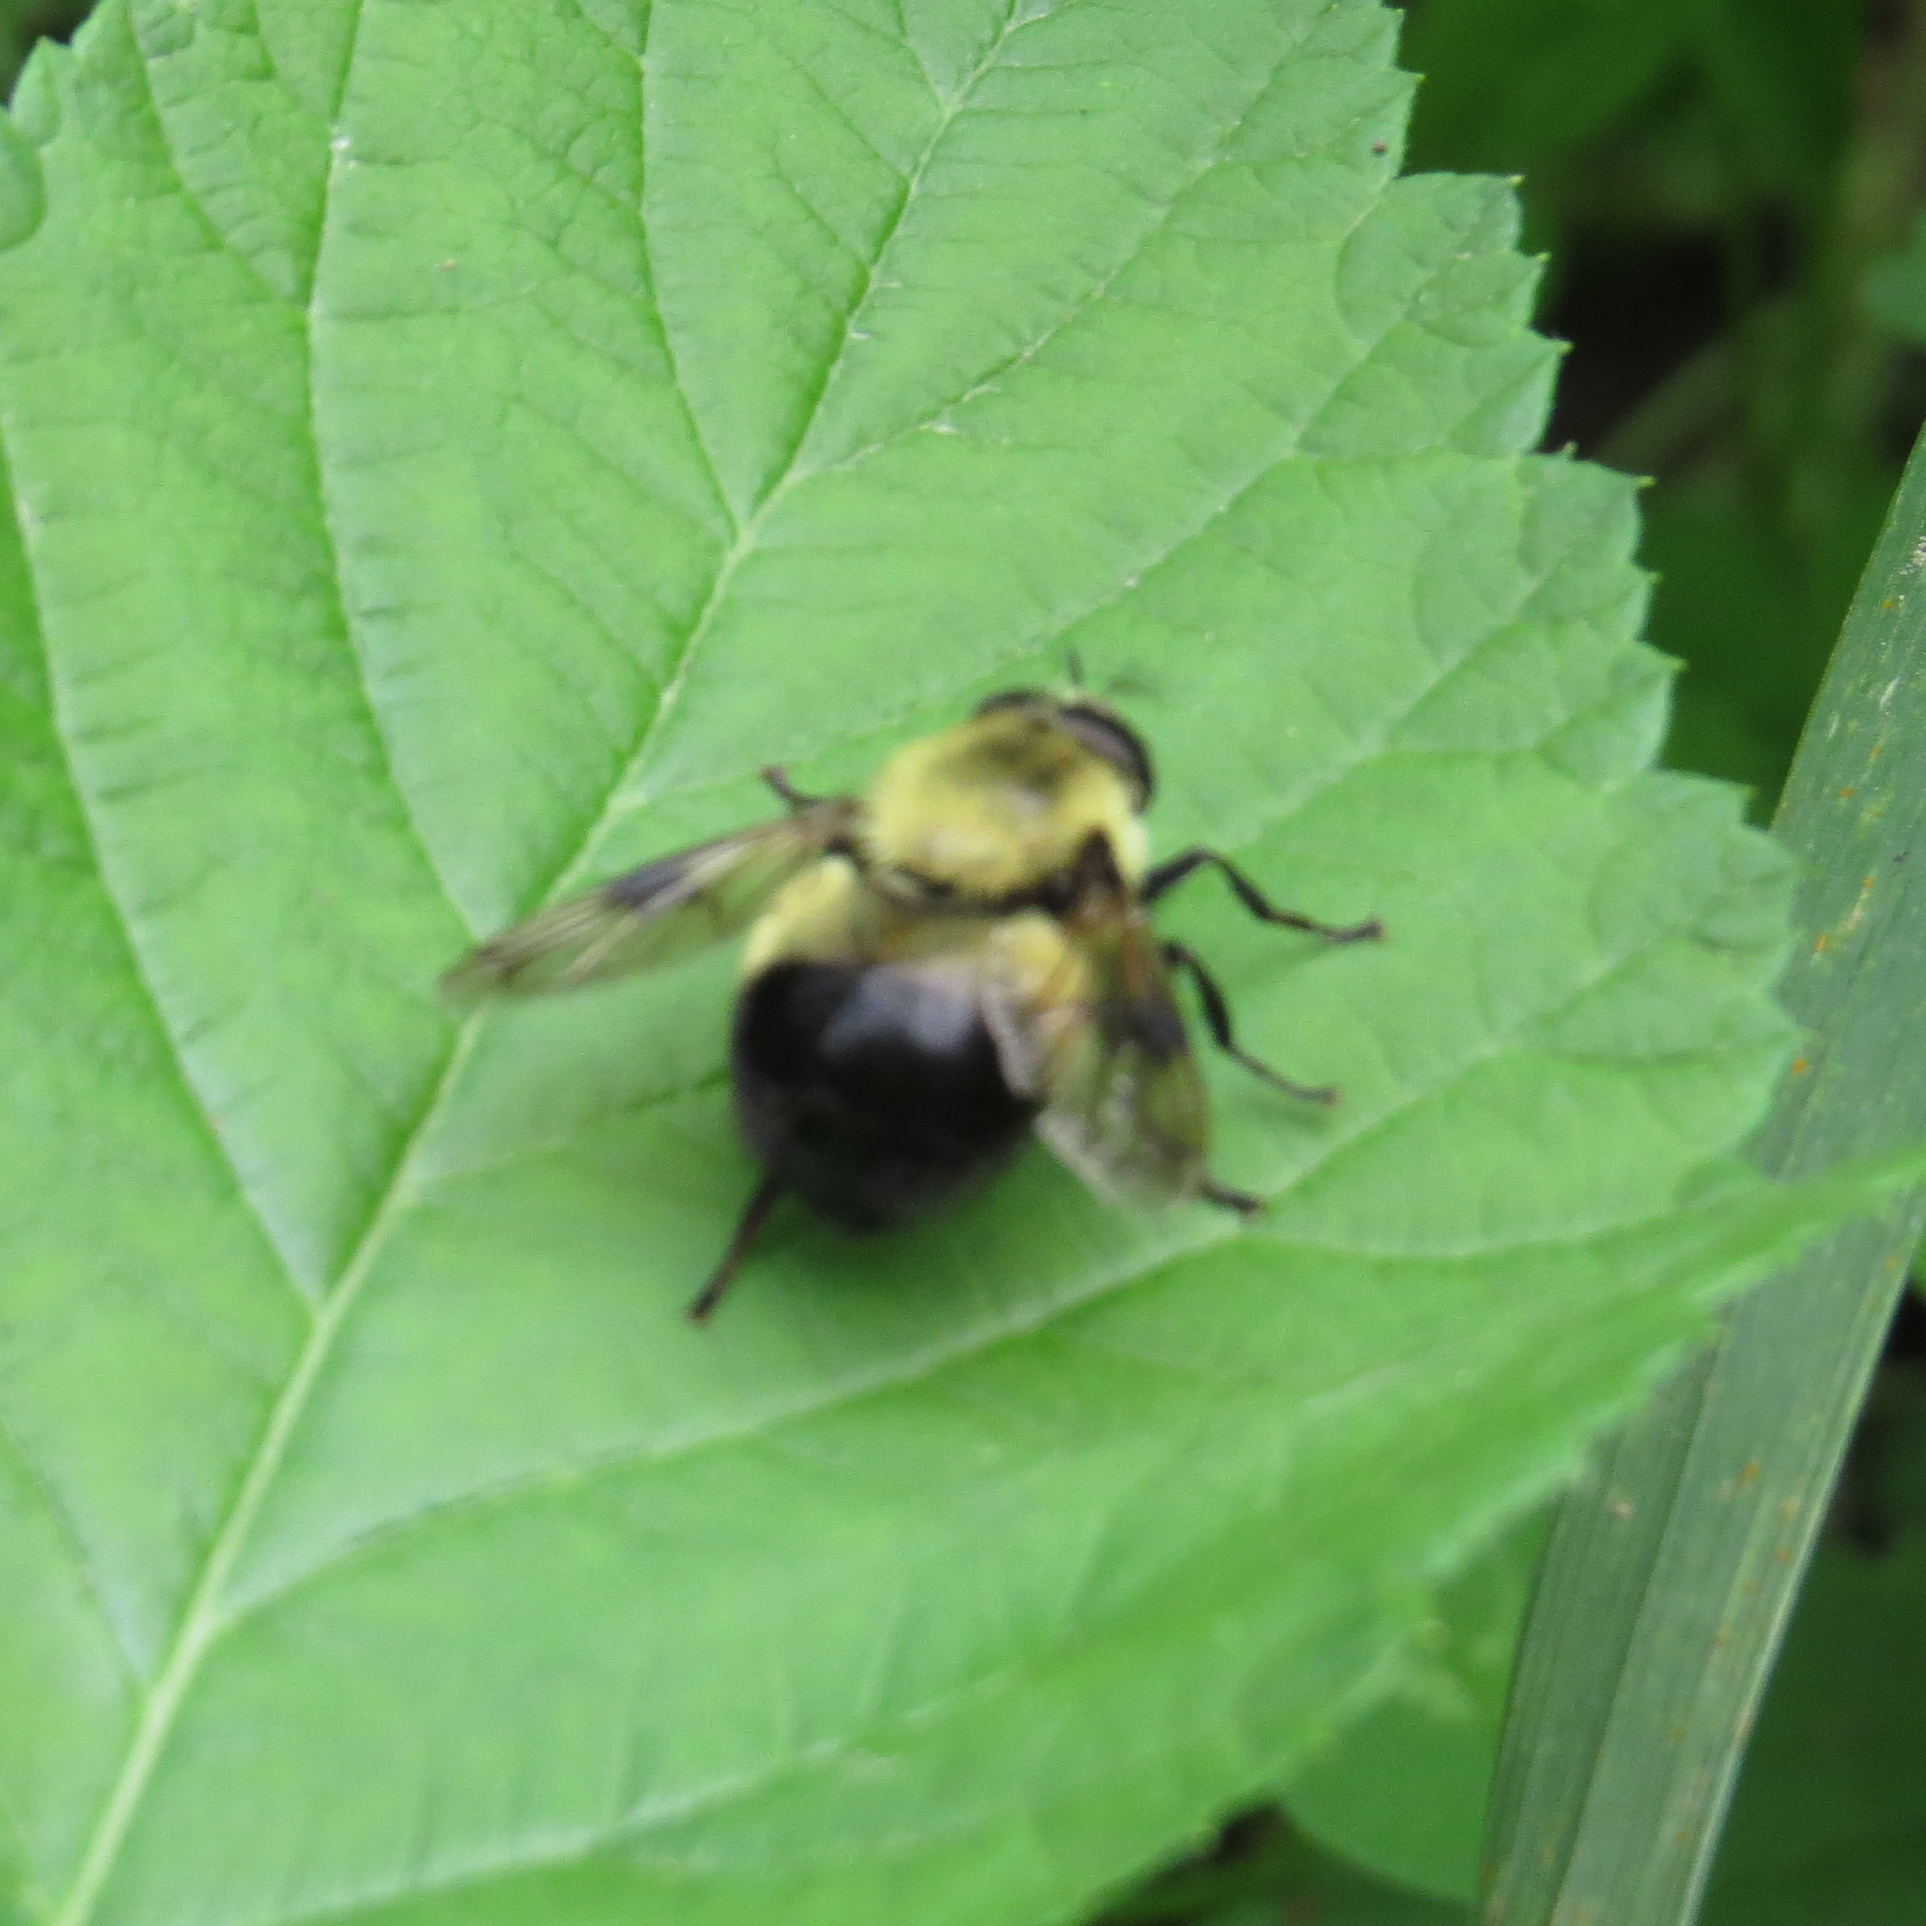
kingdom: Animalia
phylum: Arthropoda
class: Insecta
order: Diptera
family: Syrphidae
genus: Volucella
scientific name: Volucella evecta
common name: Eastern swiftwing
